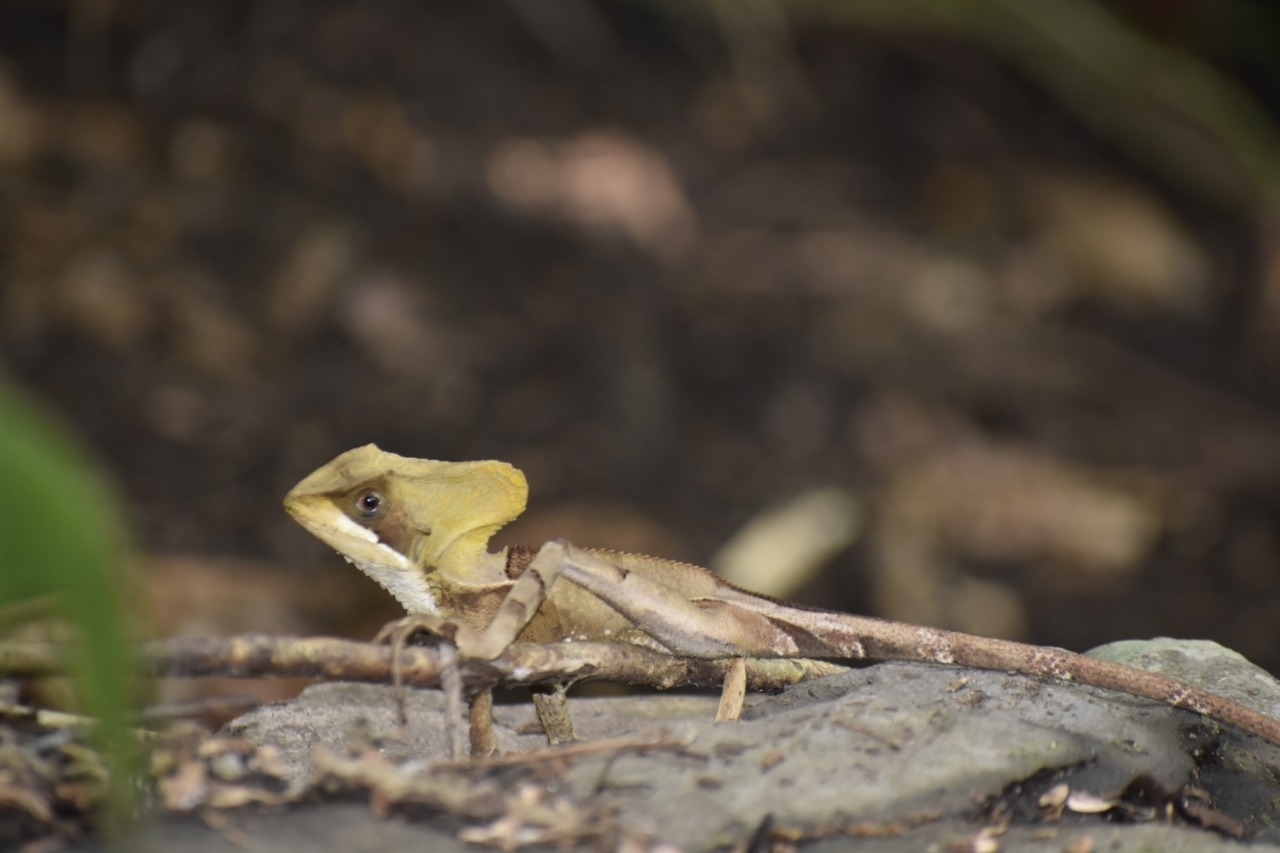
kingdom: Animalia
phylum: Chordata
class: Squamata
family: Corytophanidae
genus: Corytophanes
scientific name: Corytophanes hernandesii
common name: Hernandez’s helmeted basilisk
